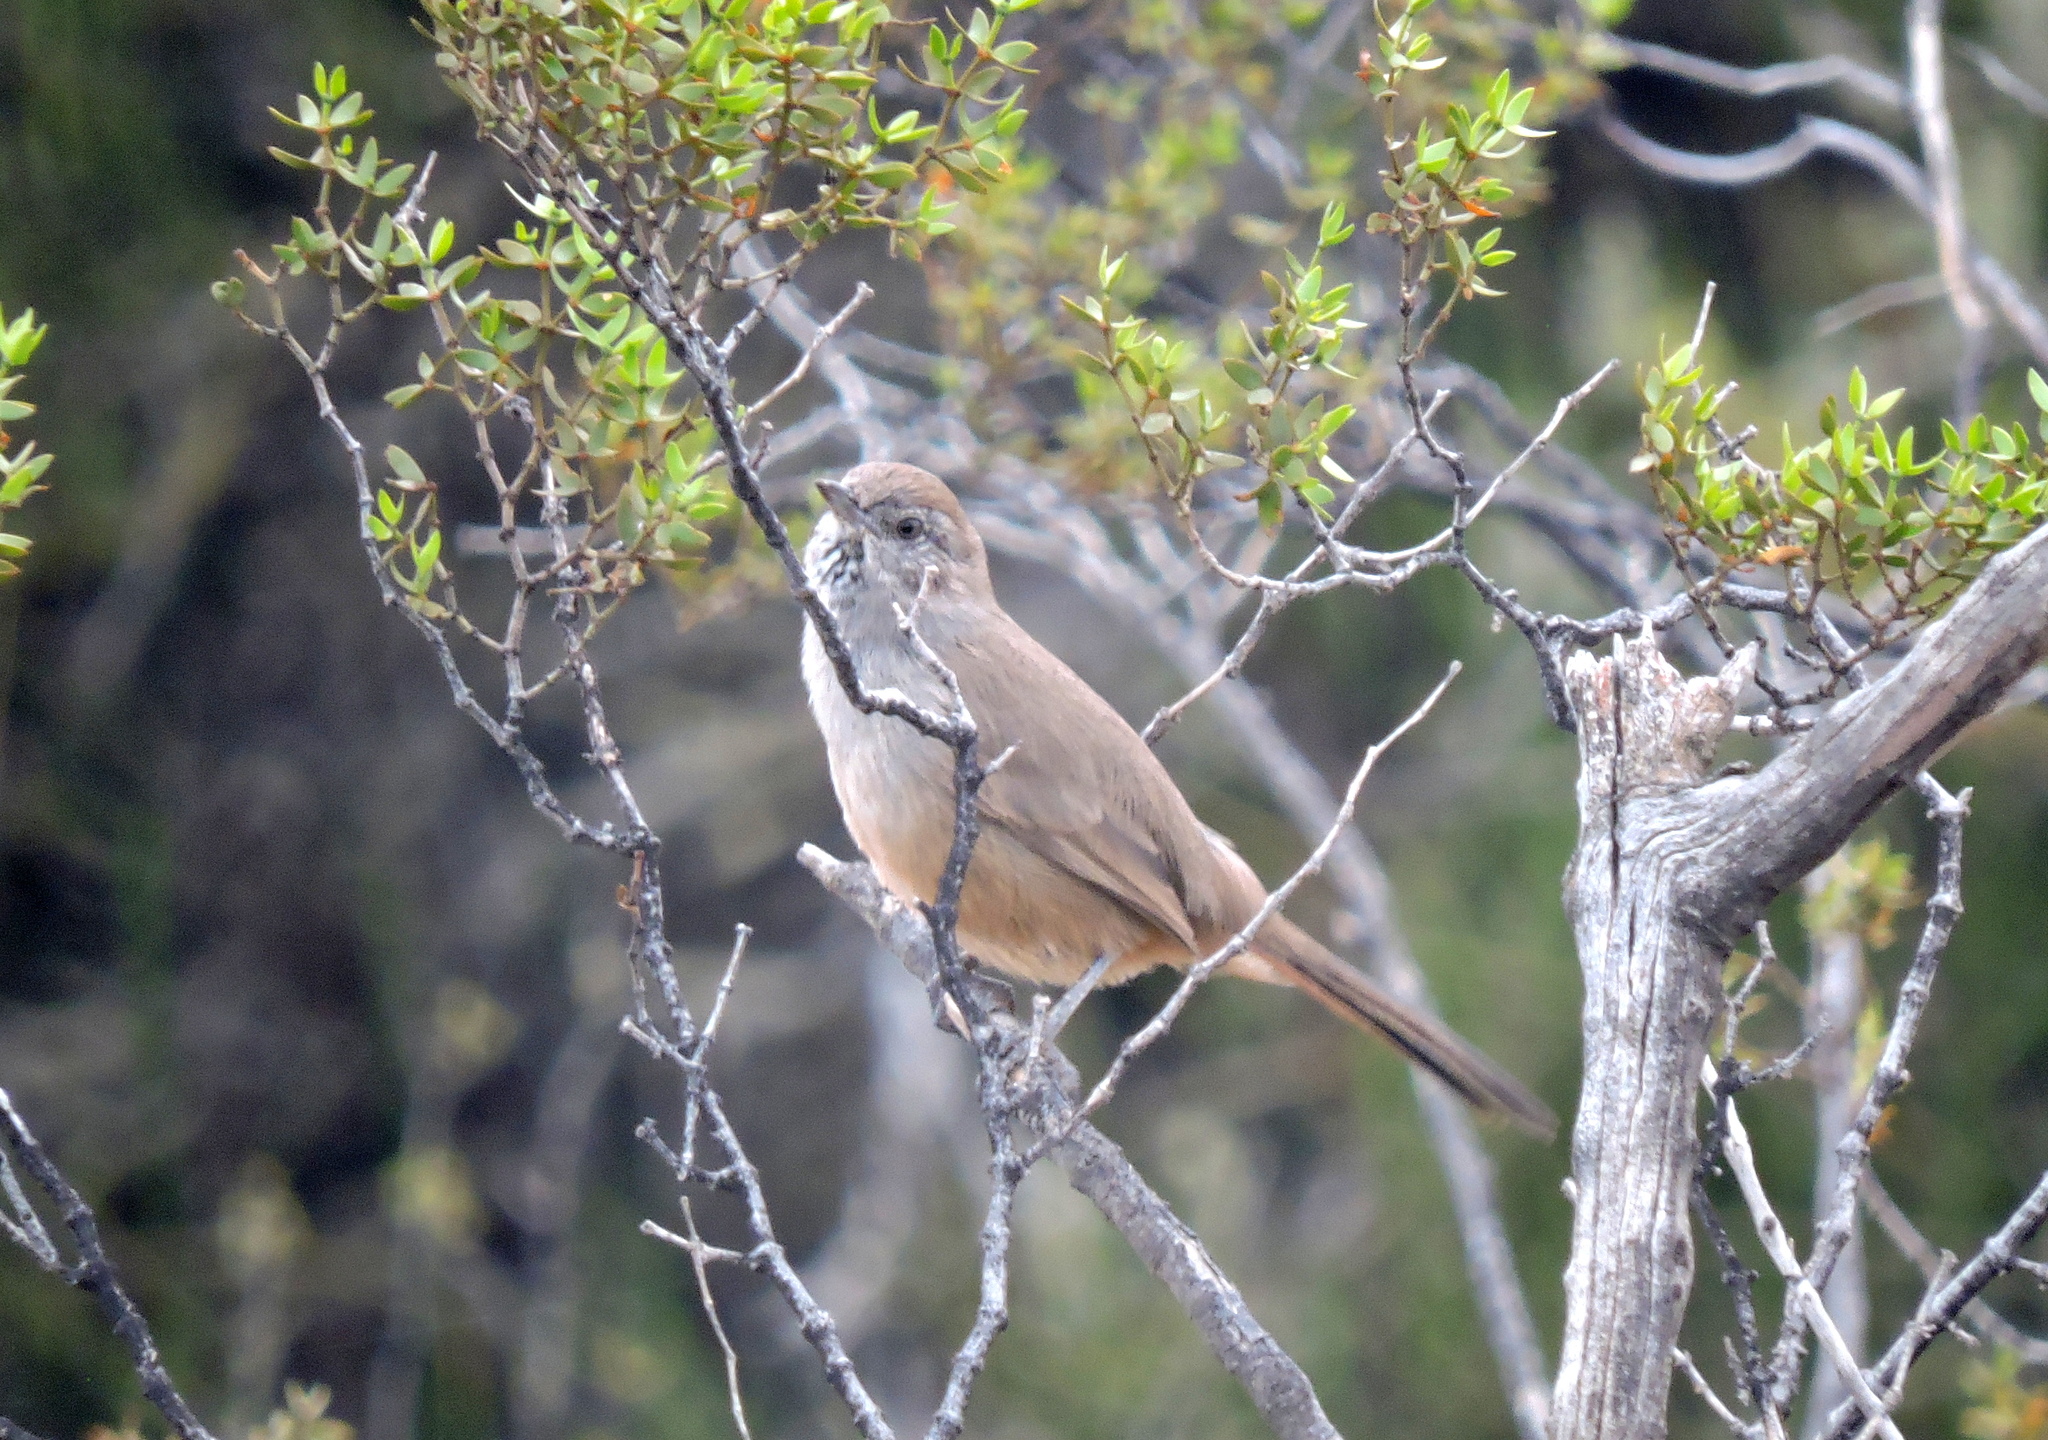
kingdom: Animalia
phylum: Chordata
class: Aves
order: Passeriformes
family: Furnariidae
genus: Asthenes
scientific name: Asthenes patagonica
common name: Patagonian canastero
